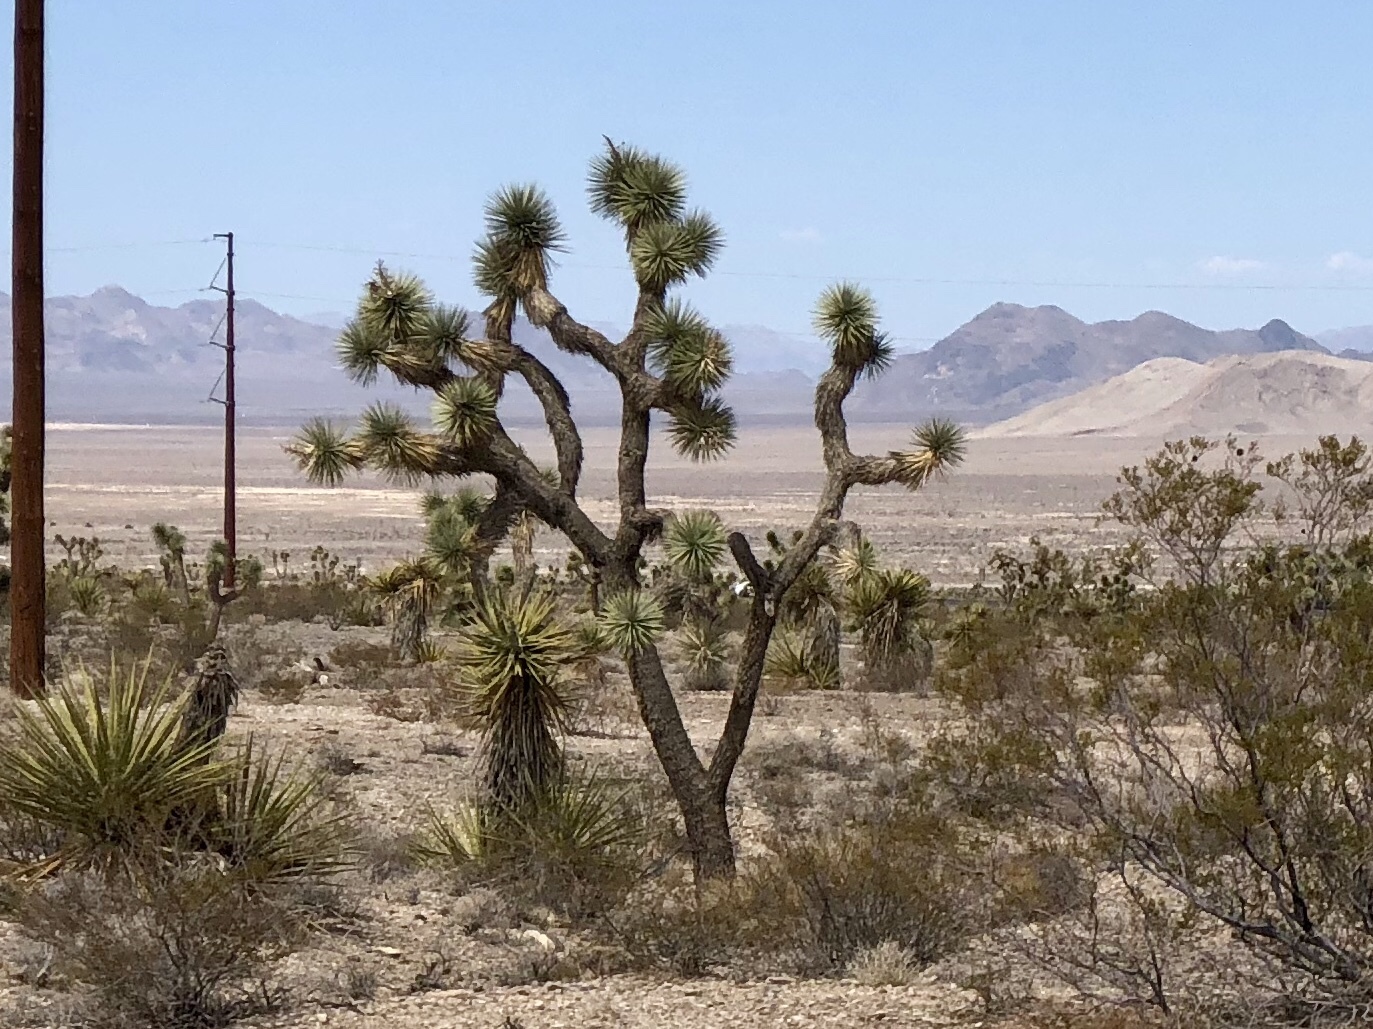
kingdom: Plantae
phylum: Tracheophyta
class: Liliopsida
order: Asparagales
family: Asparagaceae
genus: Yucca
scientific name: Yucca brevifolia
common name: Joshua tree
